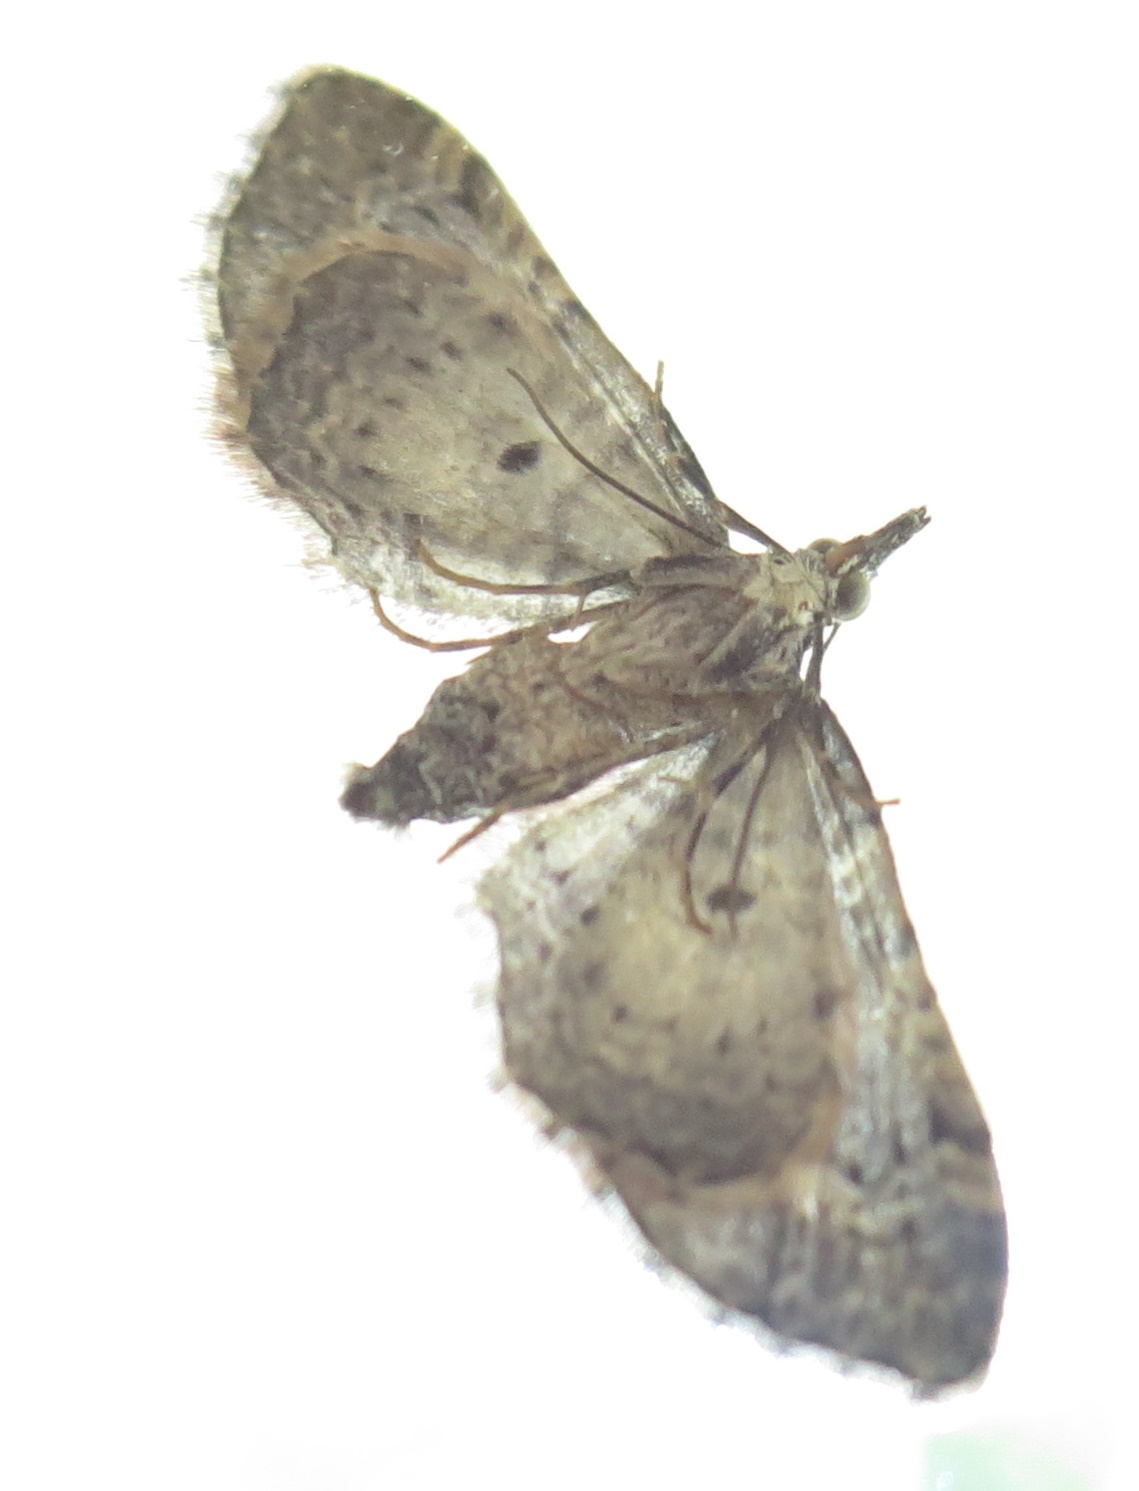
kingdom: Animalia
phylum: Arthropoda
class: Insecta
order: Lepidoptera
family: Geometridae
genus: Idaea
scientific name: Idaea mutanda
